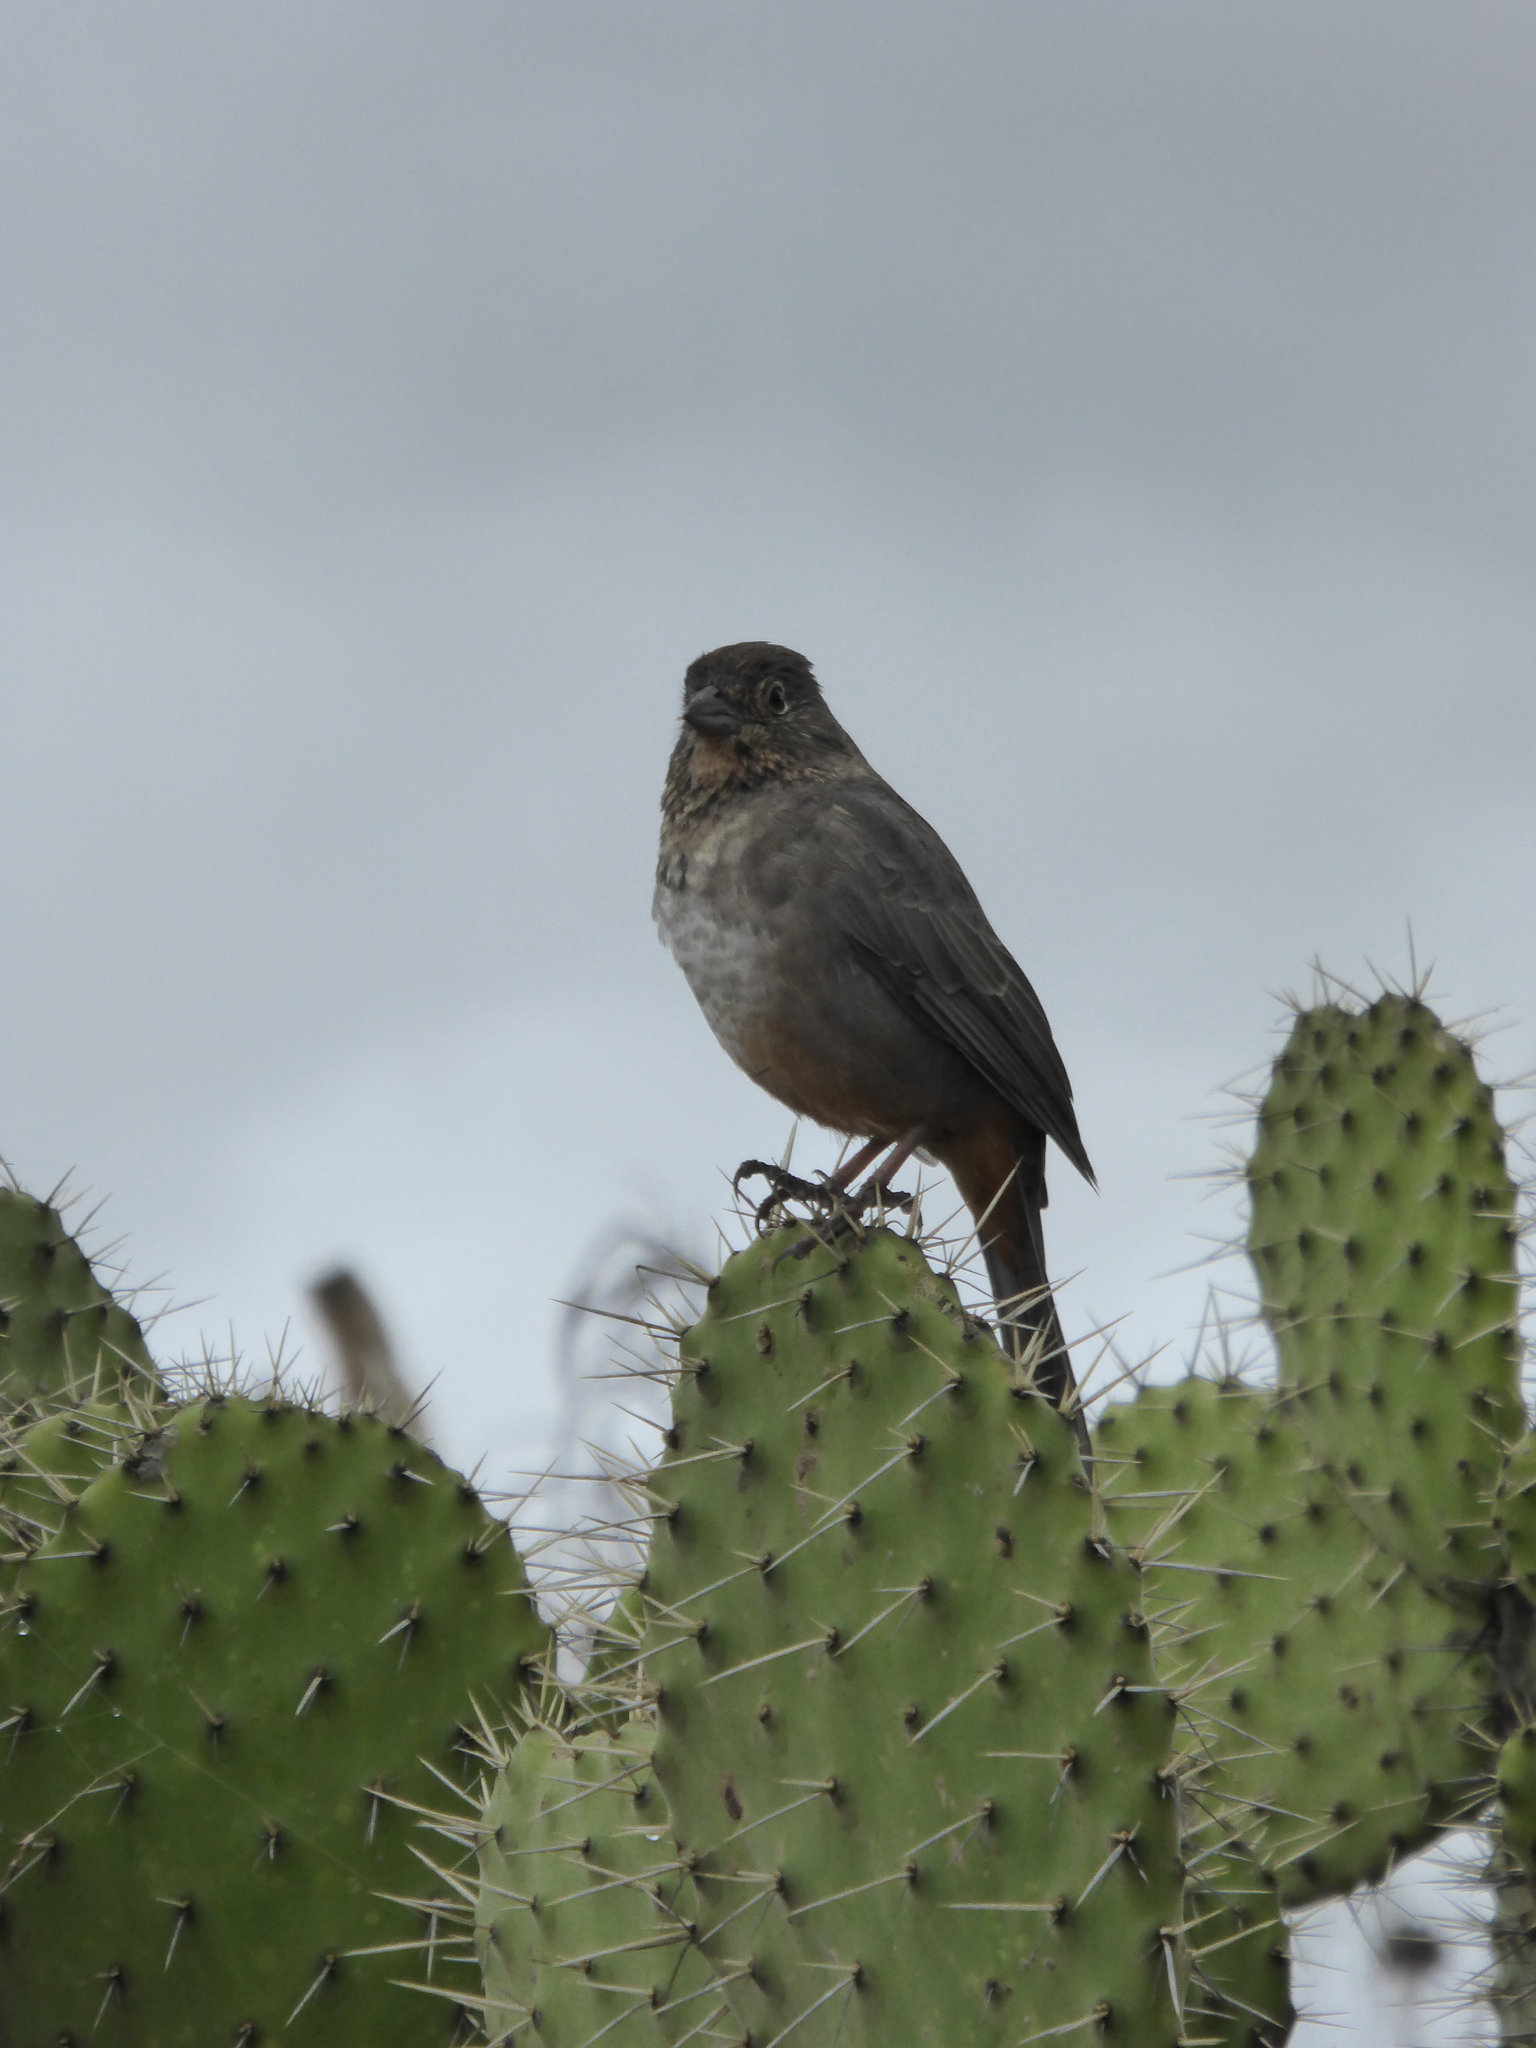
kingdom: Animalia
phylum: Chordata
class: Aves
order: Passeriformes
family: Passerellidae
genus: Melozone
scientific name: Melozone fusca
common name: Canyon towhee
